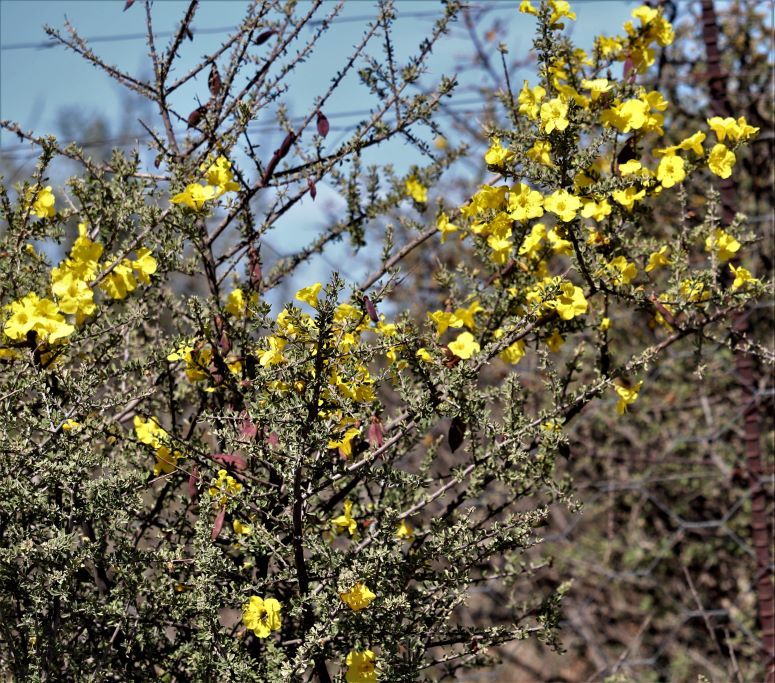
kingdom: Plantae
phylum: Tracheophyta
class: Magnoliopsida
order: Lamiales
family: Bignoniaceae
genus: Rhigozum
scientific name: Rhigozum obovatum
